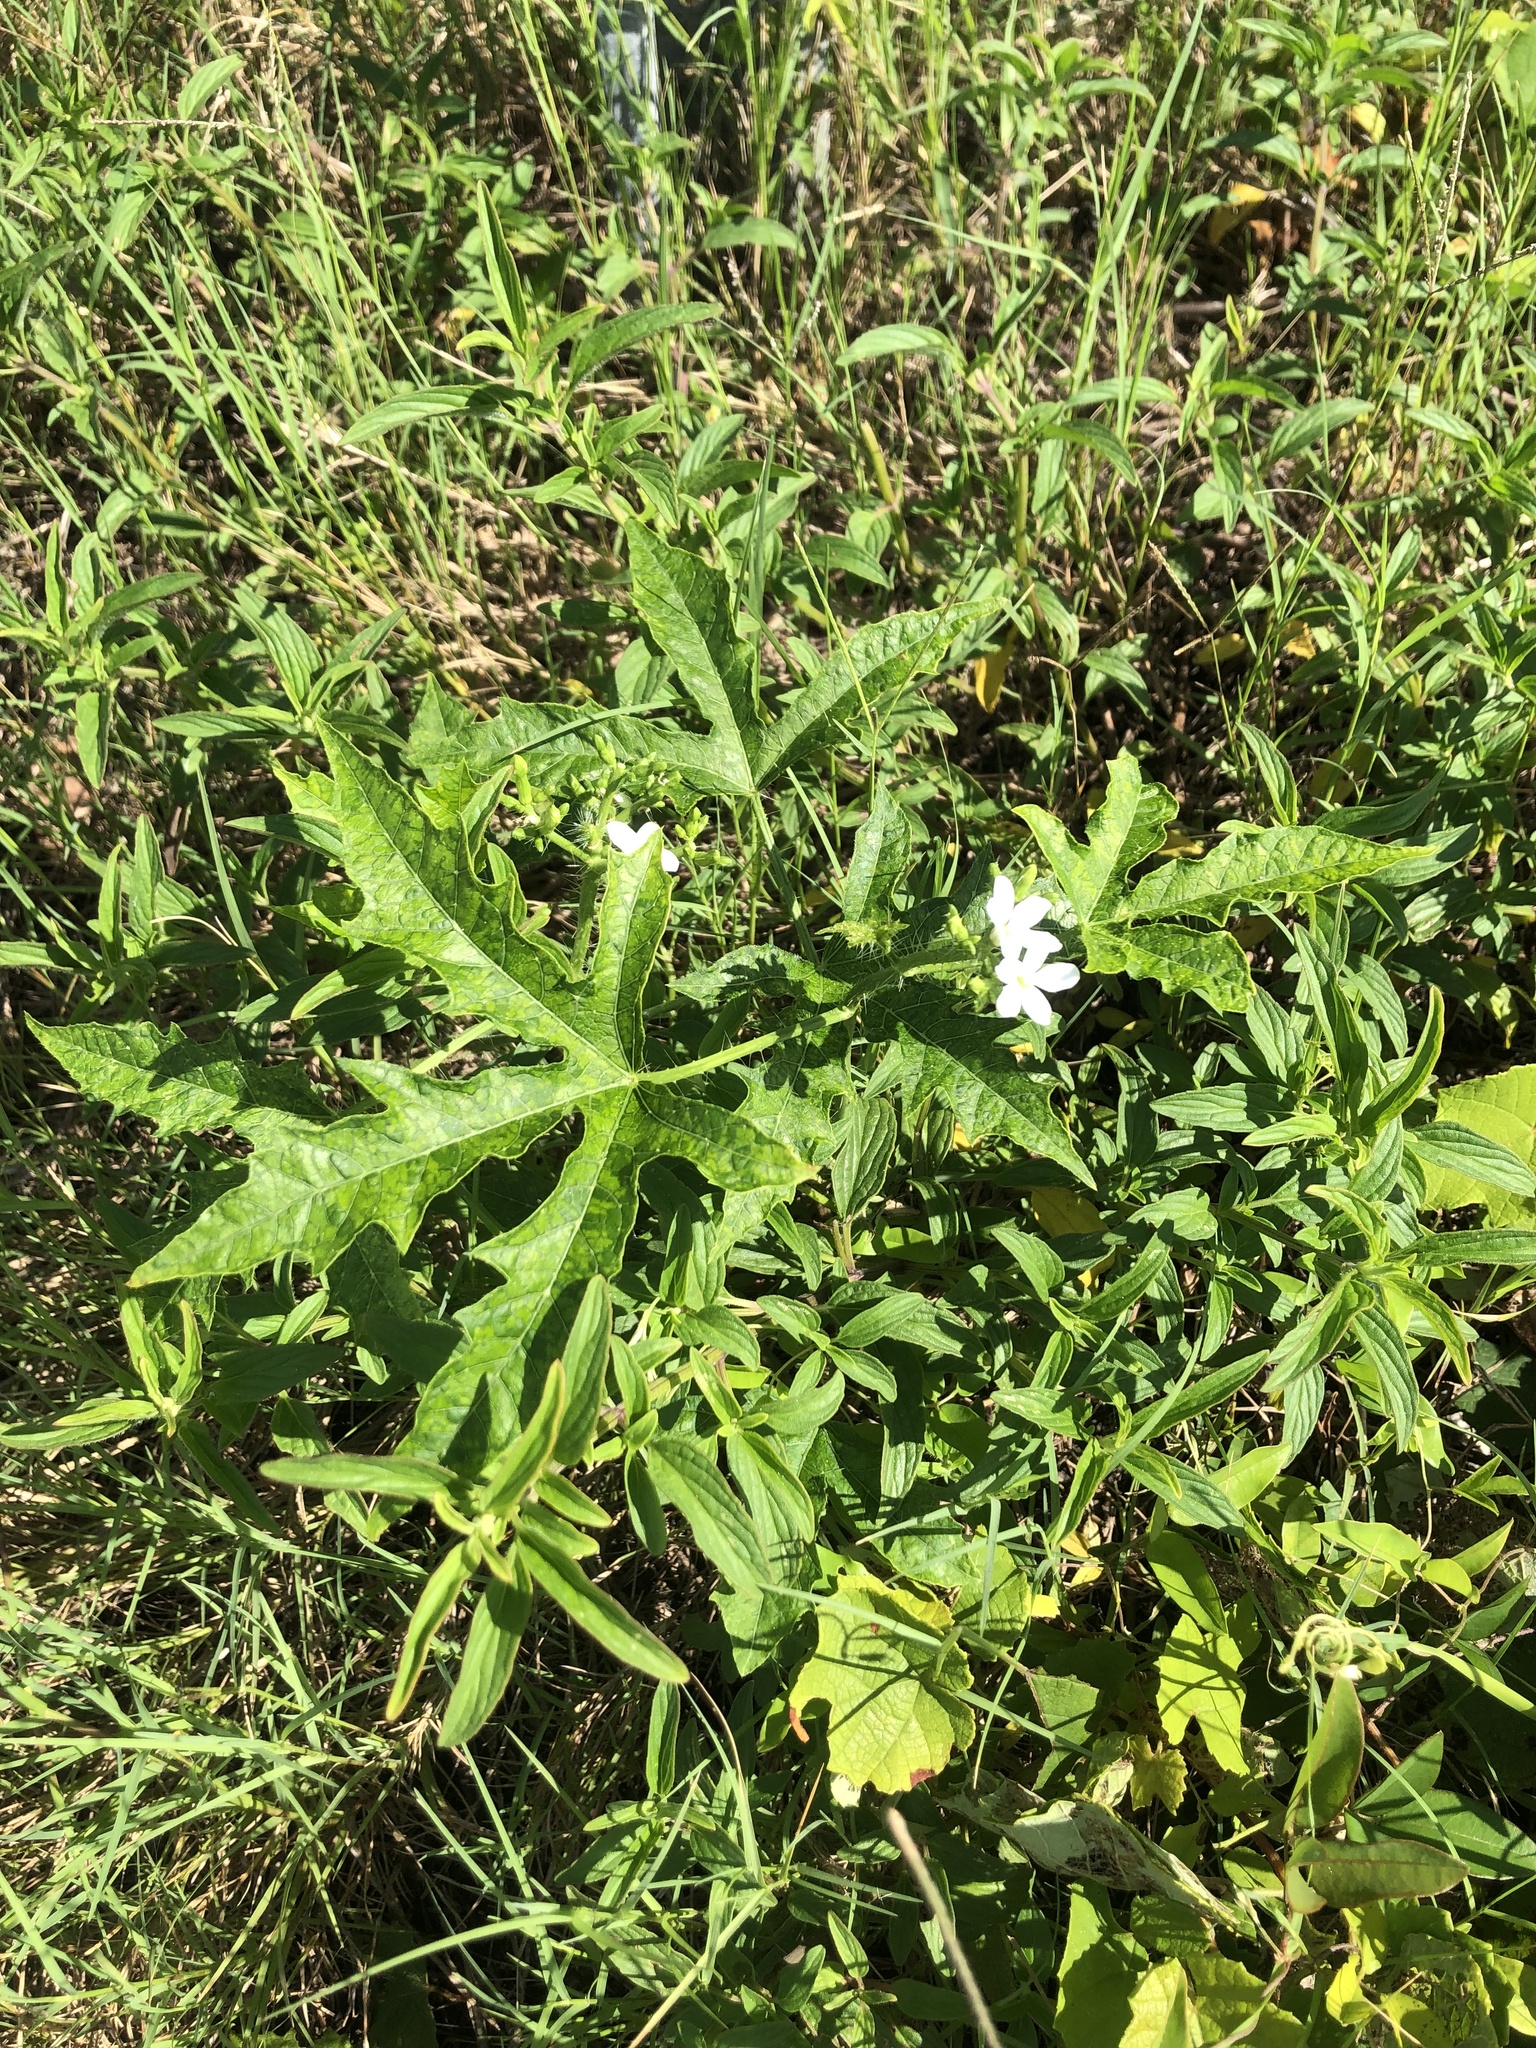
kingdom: Plantae
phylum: Tracheophyta
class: Magnoliopsida
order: Malpighiales
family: Euphorbiaceae
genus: Cnidoscolus
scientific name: Cnidoscolus stimulosus
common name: Bull-nettle
